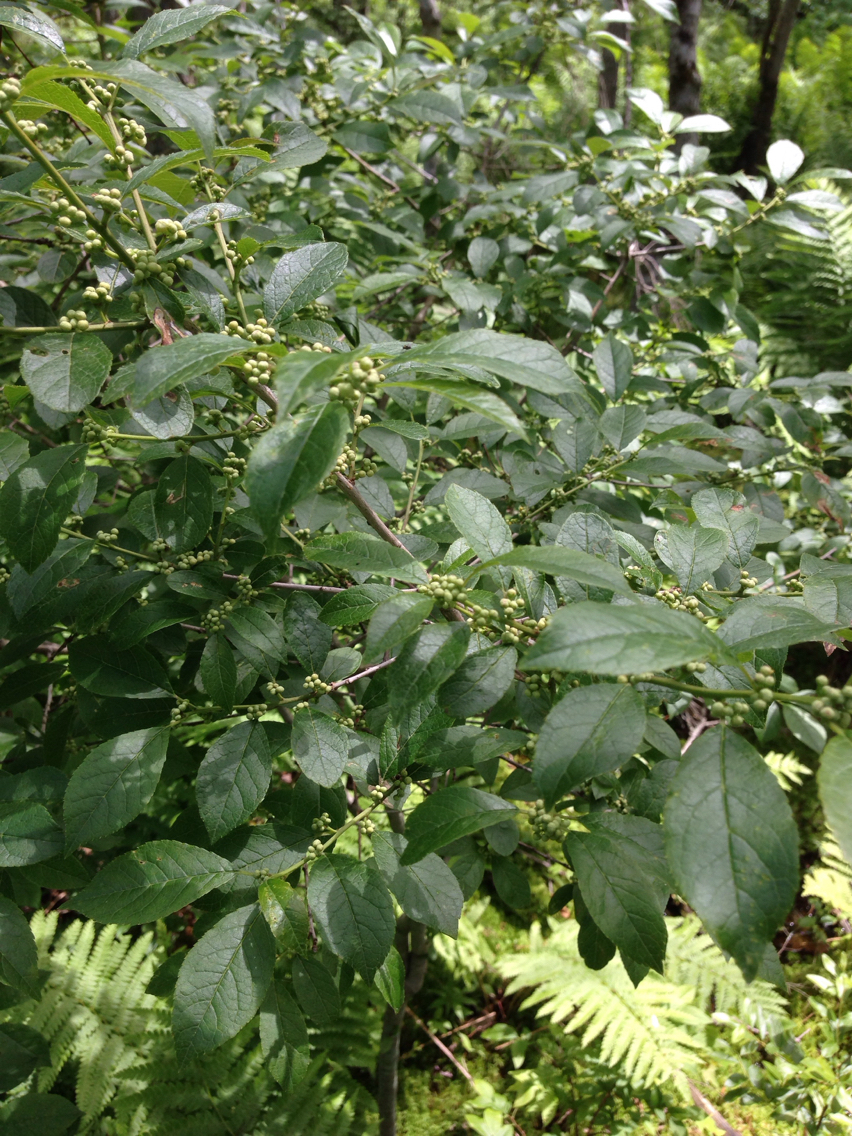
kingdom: Plantae
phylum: Tracheophyta
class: Magnoliopsida
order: Aquifoliales
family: Aquifoliaceae
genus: Ilex
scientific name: Ilex verticillata
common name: Virginia winterberry
